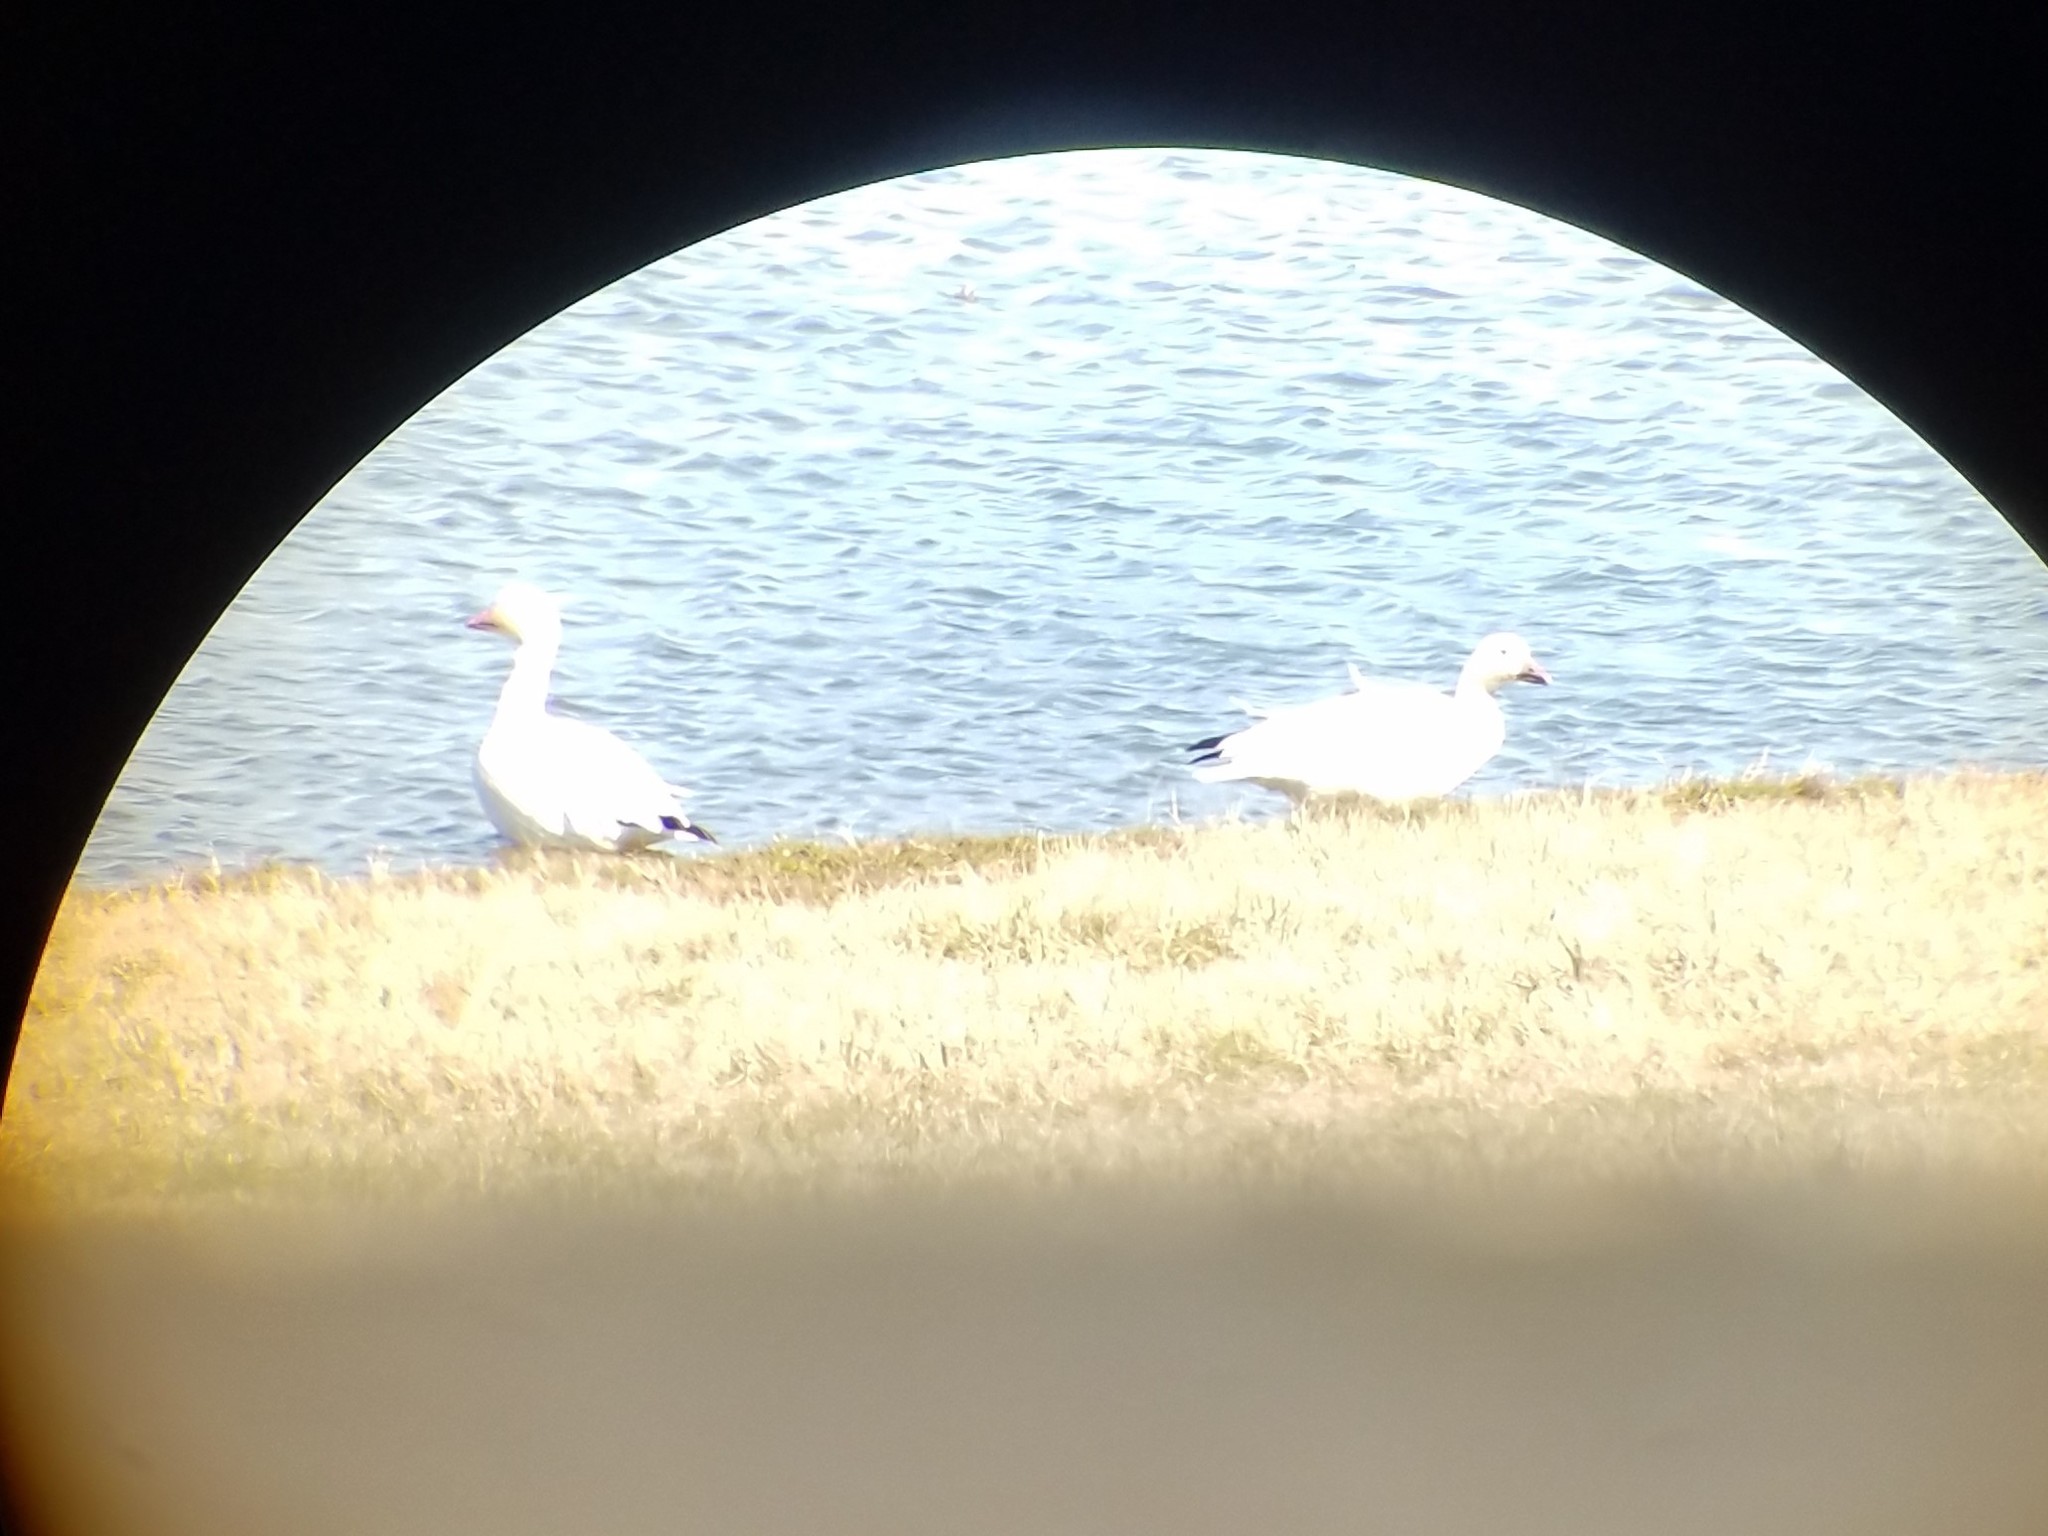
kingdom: Animalia
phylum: Chordata
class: Aves
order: Anseriformes
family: Anatidae
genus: Anser
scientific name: Anser caerulescens
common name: Snow goose
